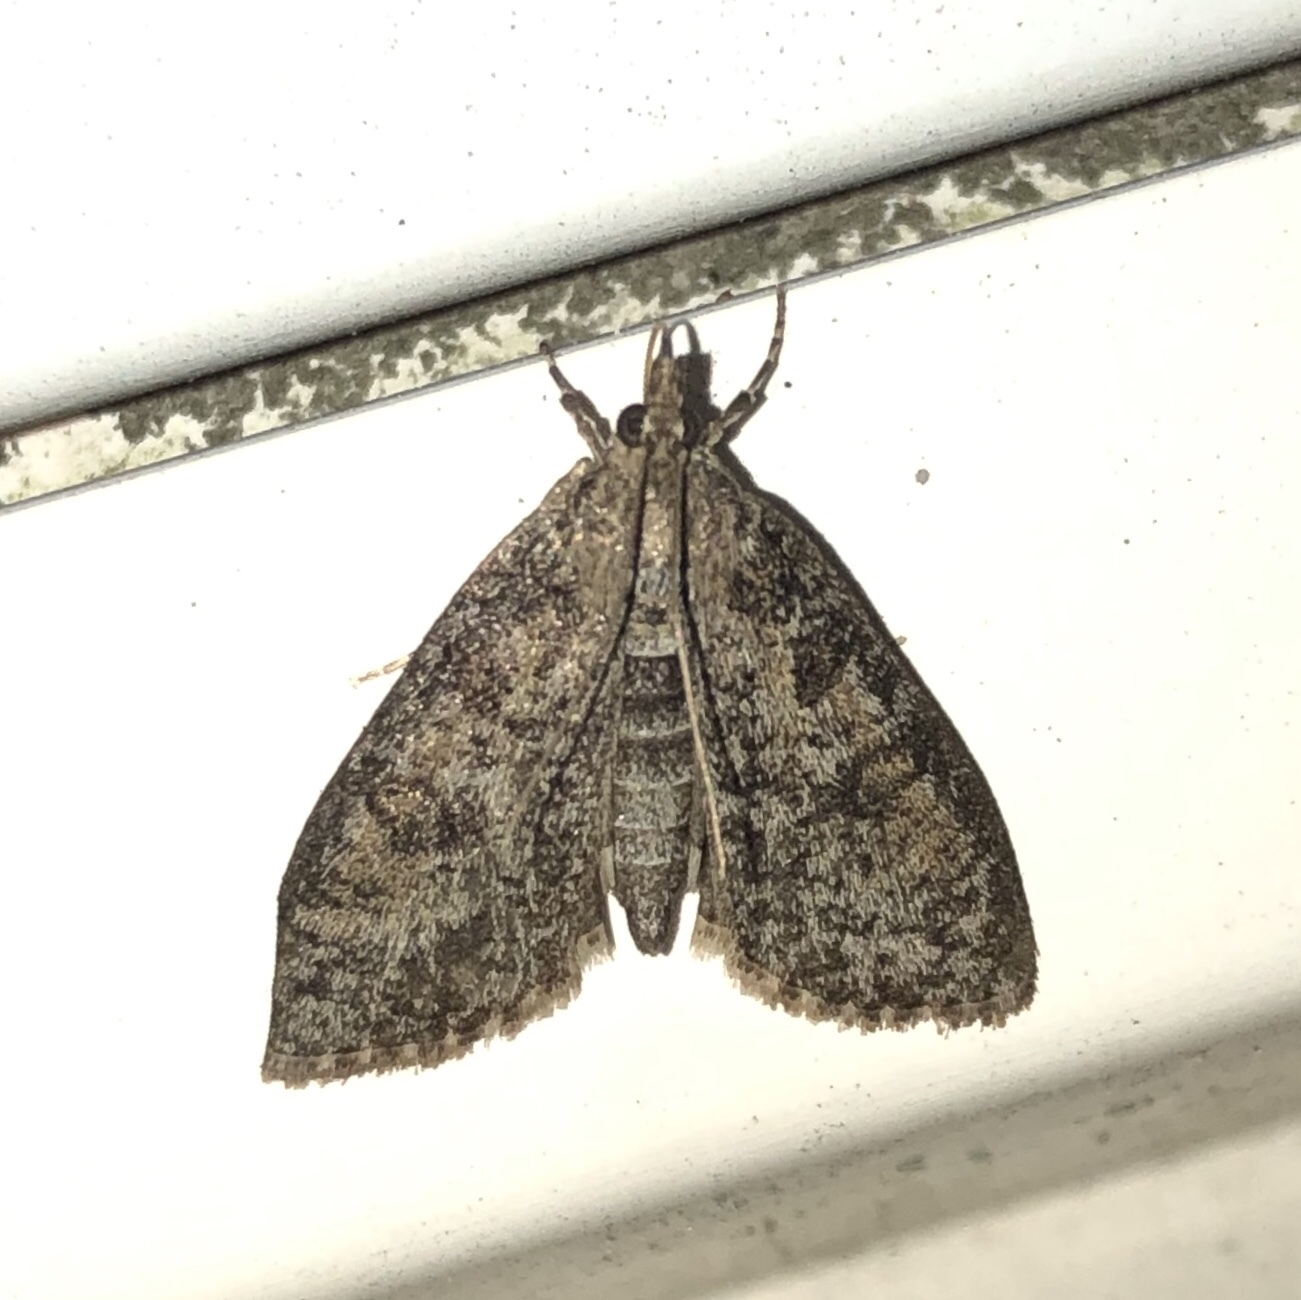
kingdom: Animalia
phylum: Arthropoda
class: Insecta
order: Lepidoptera
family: Crambidae
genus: Palpita
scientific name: Palpita magniferalis
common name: Splendid palpita moth
